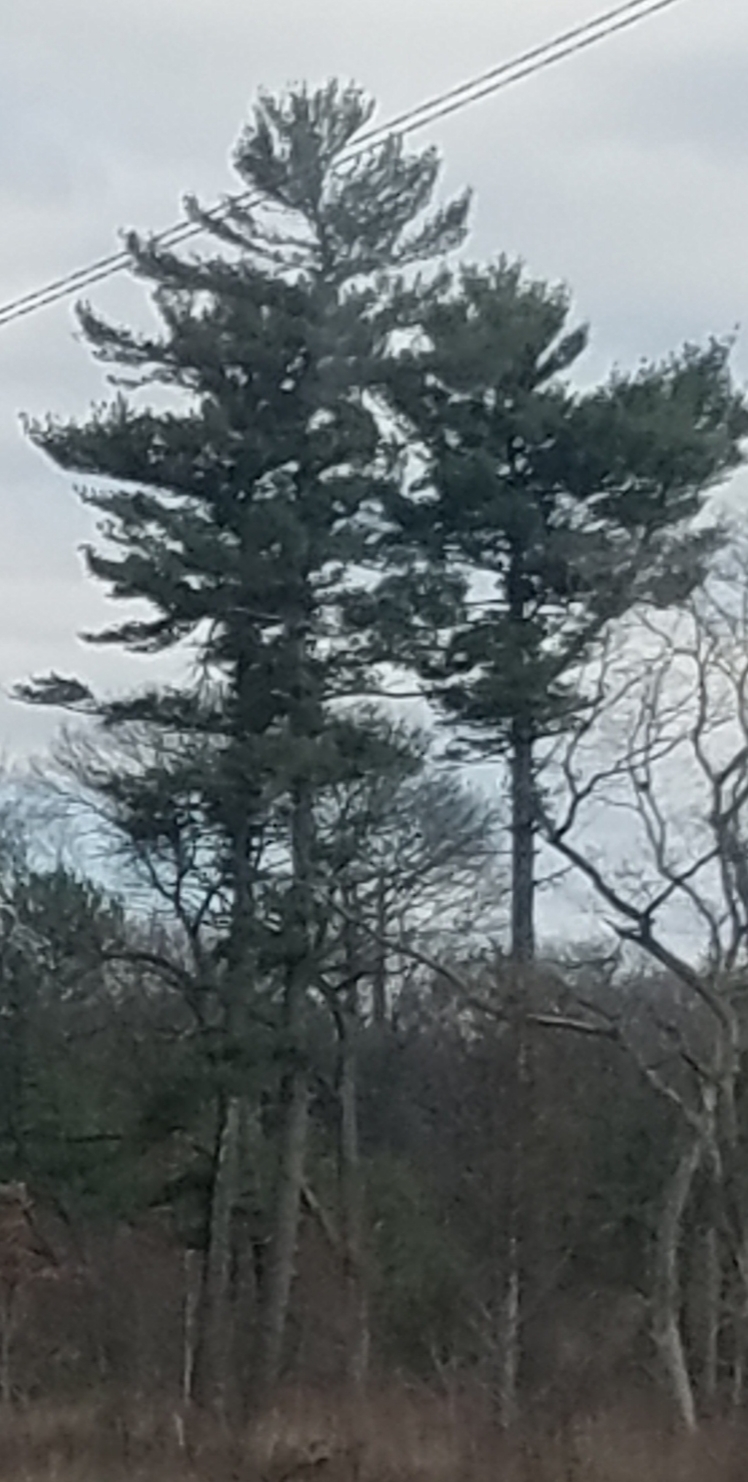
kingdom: Plantae
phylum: Tracheophyta
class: Pinopsida
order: Pinales
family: Pinaceae
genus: Pinus
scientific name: Pinus strobus
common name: Weymouth pine
